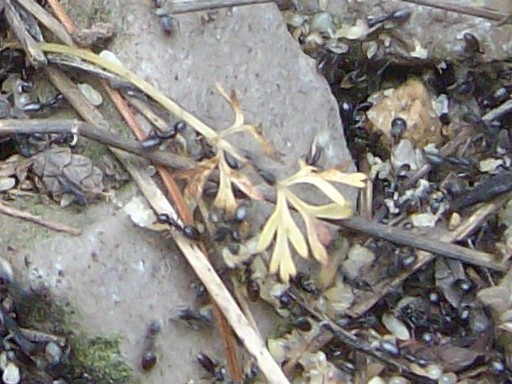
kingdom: Animalia
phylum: Arthropoda
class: Insecta
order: Hymenoptera
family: Formicidae
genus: Tapinoma
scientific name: Tapinoma sessile
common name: Odorous house ant
